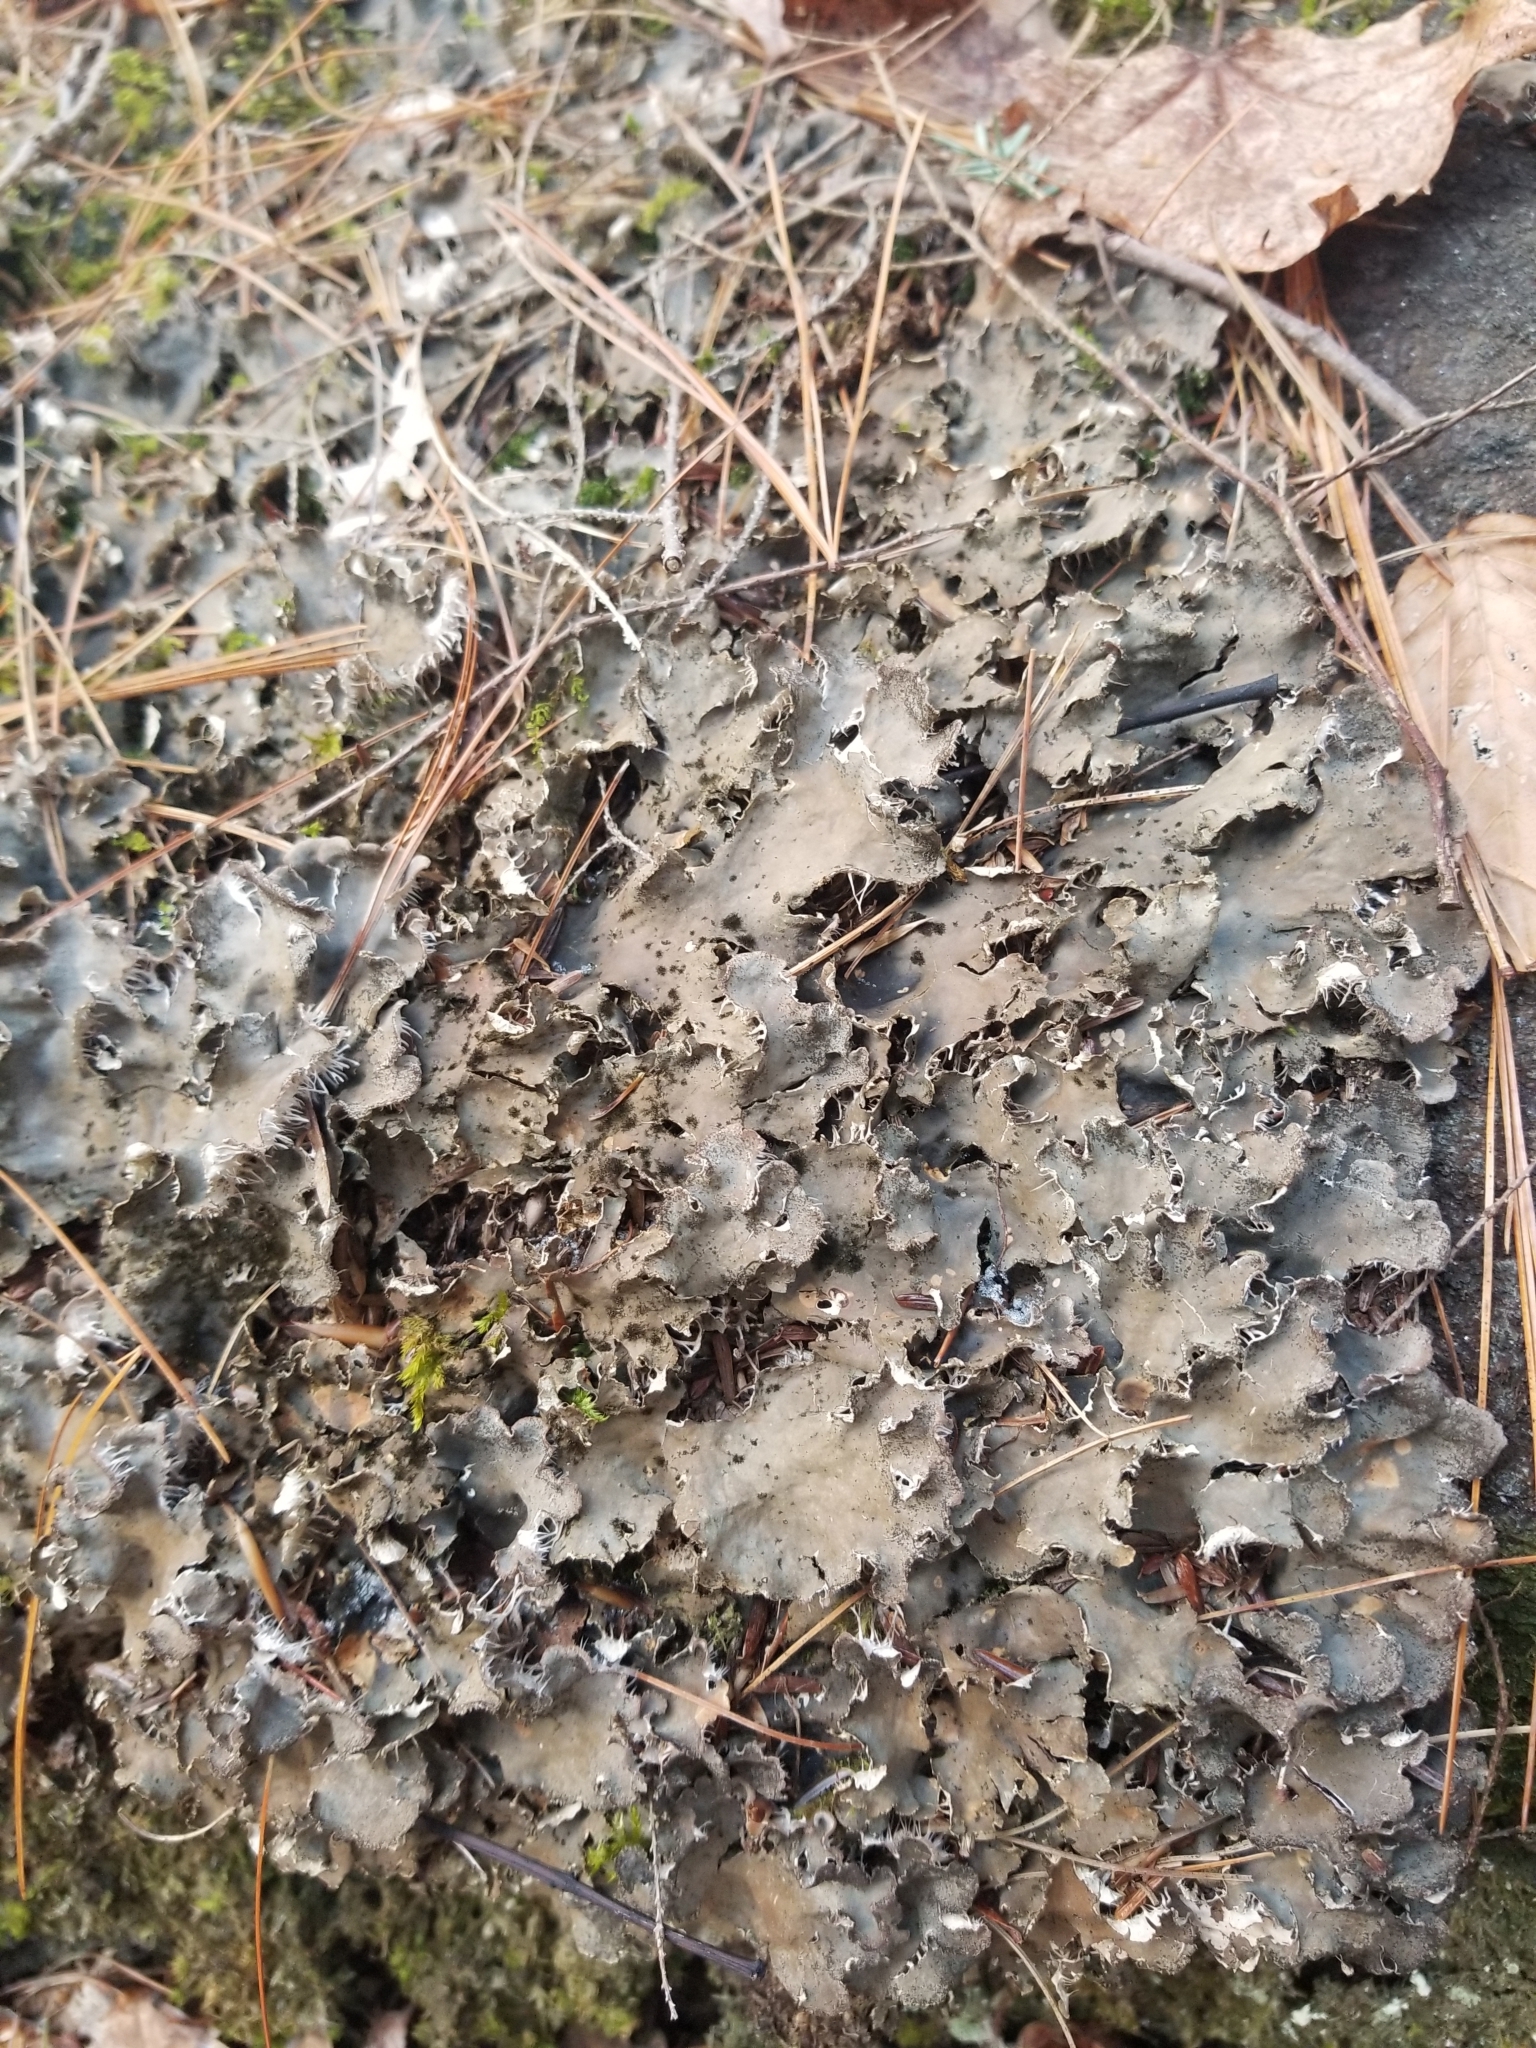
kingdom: Fungi
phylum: Ascomycota
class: Lecanoromycetes
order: Peltigerales
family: Peltigeraceae
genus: Peltigera
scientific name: Peltigera praetextata
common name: Scaly dog-lichen
